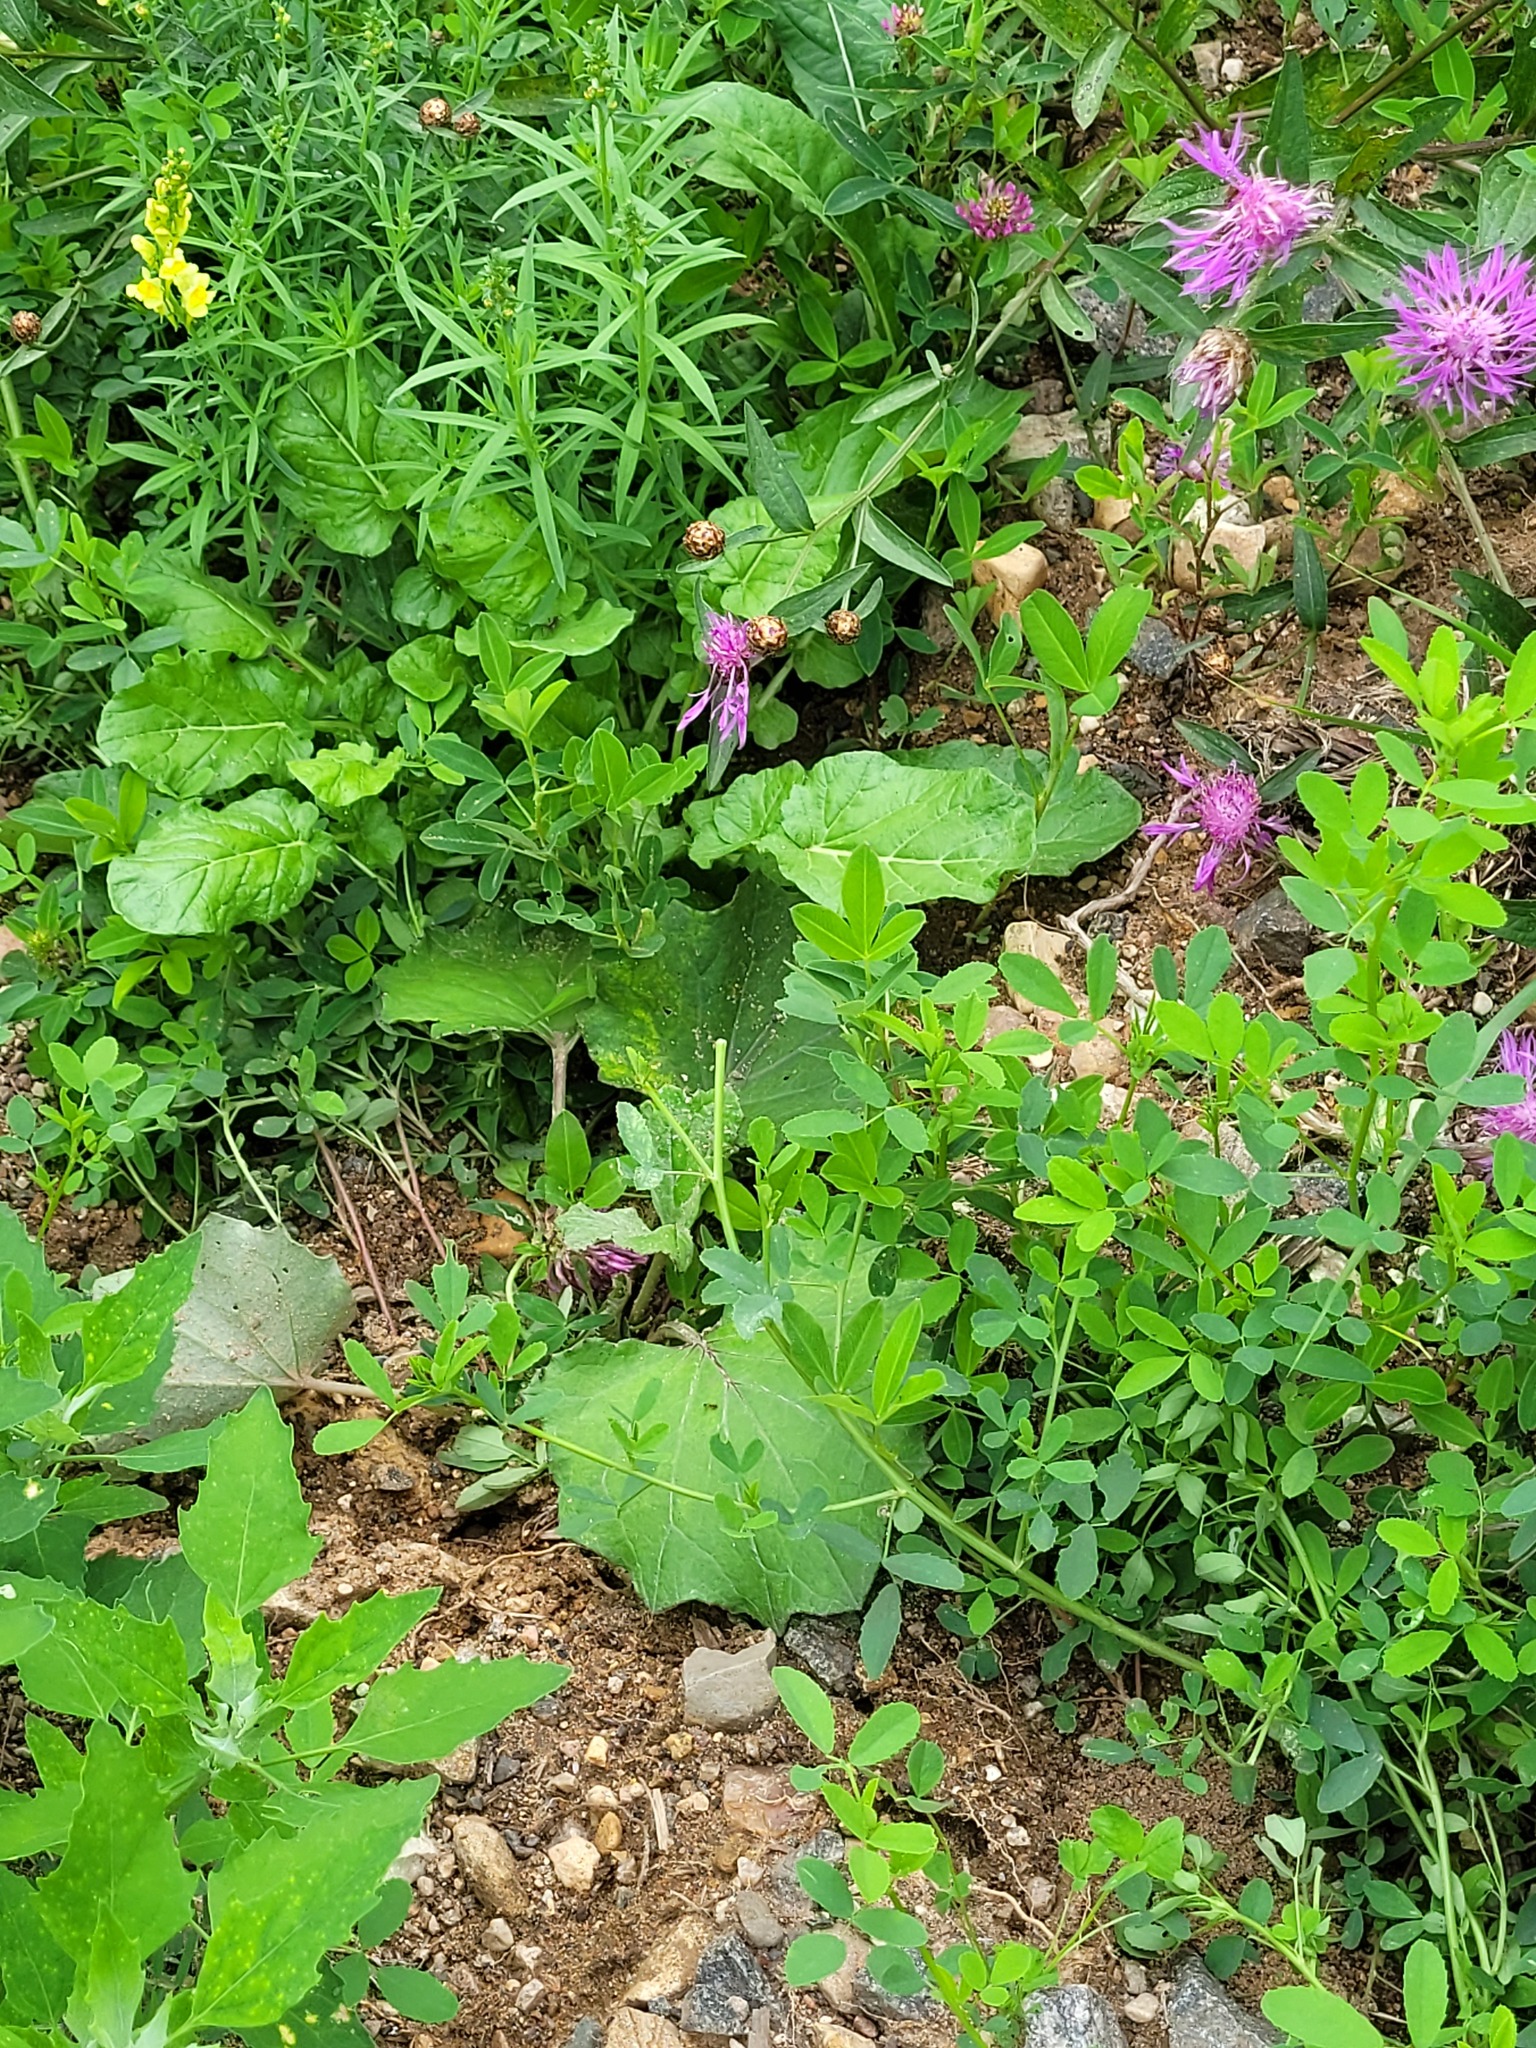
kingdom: Plantae
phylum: Tracheophyta
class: Magnoliopsida
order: Brassicales
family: Brassicaceae
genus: Barbarea
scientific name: Barbarea vulgaris
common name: Cressy-greens
